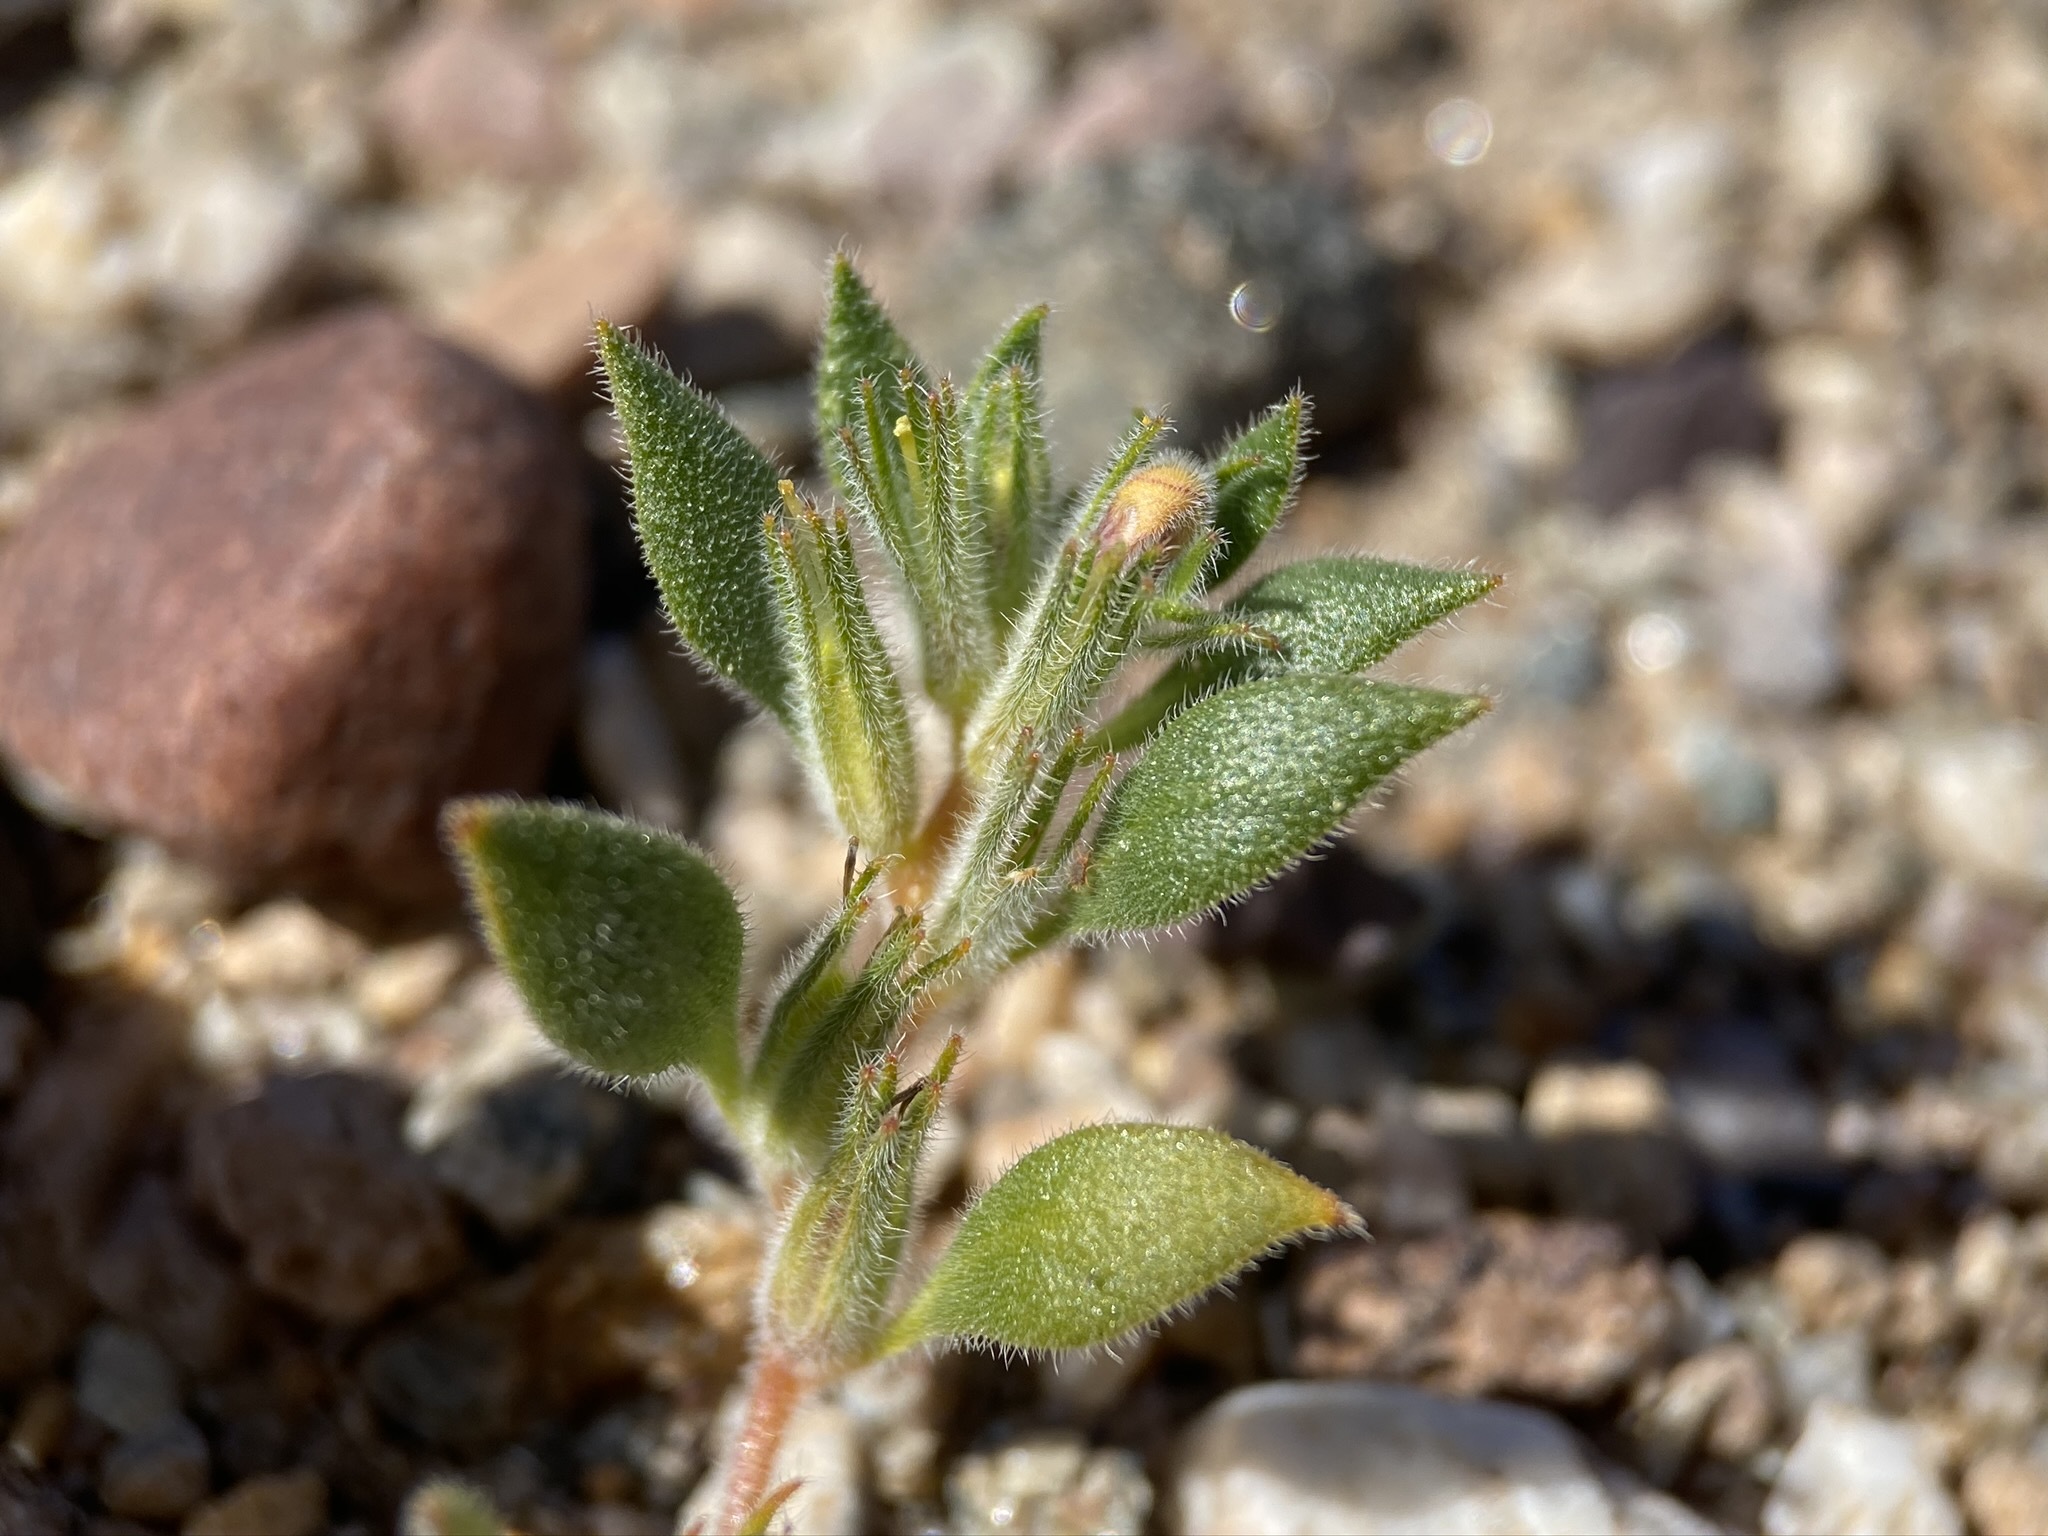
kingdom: Plantae
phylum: Tracheophyta
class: Magnoliopsida
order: Boraginales
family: Namaceae
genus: Nama
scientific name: Nama demissa
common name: Leafy nama
